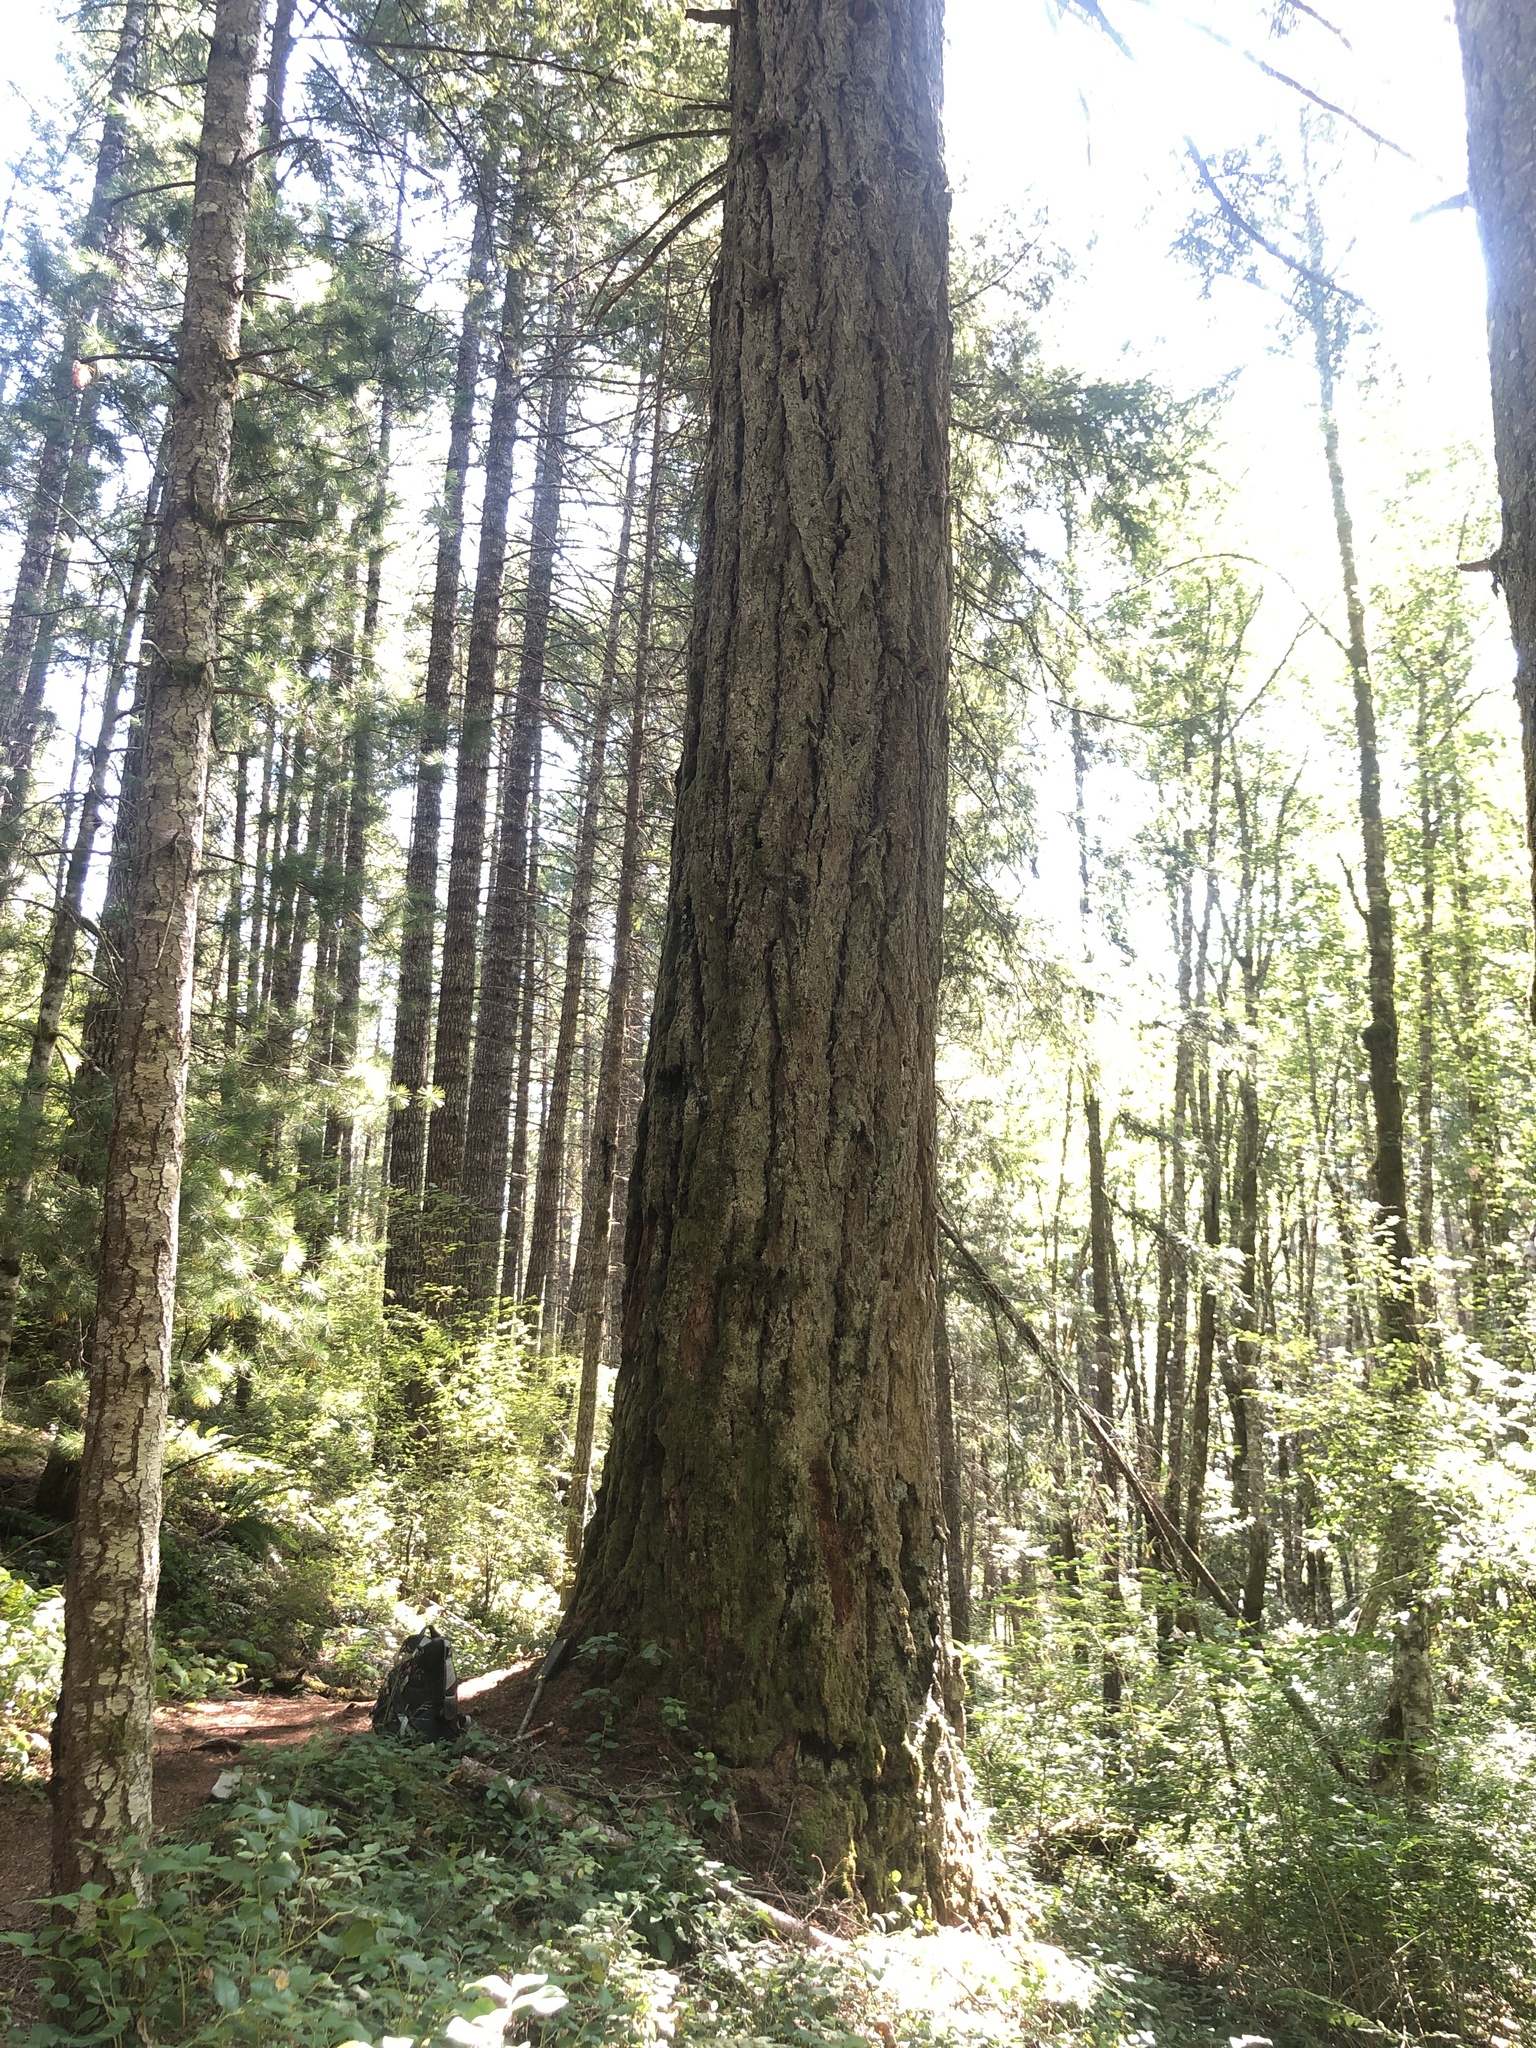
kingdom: Plantae
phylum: Tracheophyta
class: Pinopsida
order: Pinales
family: Pinaceae
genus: Pseudotsuga
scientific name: Pseudotsuga menziesii
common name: Douglas fir
